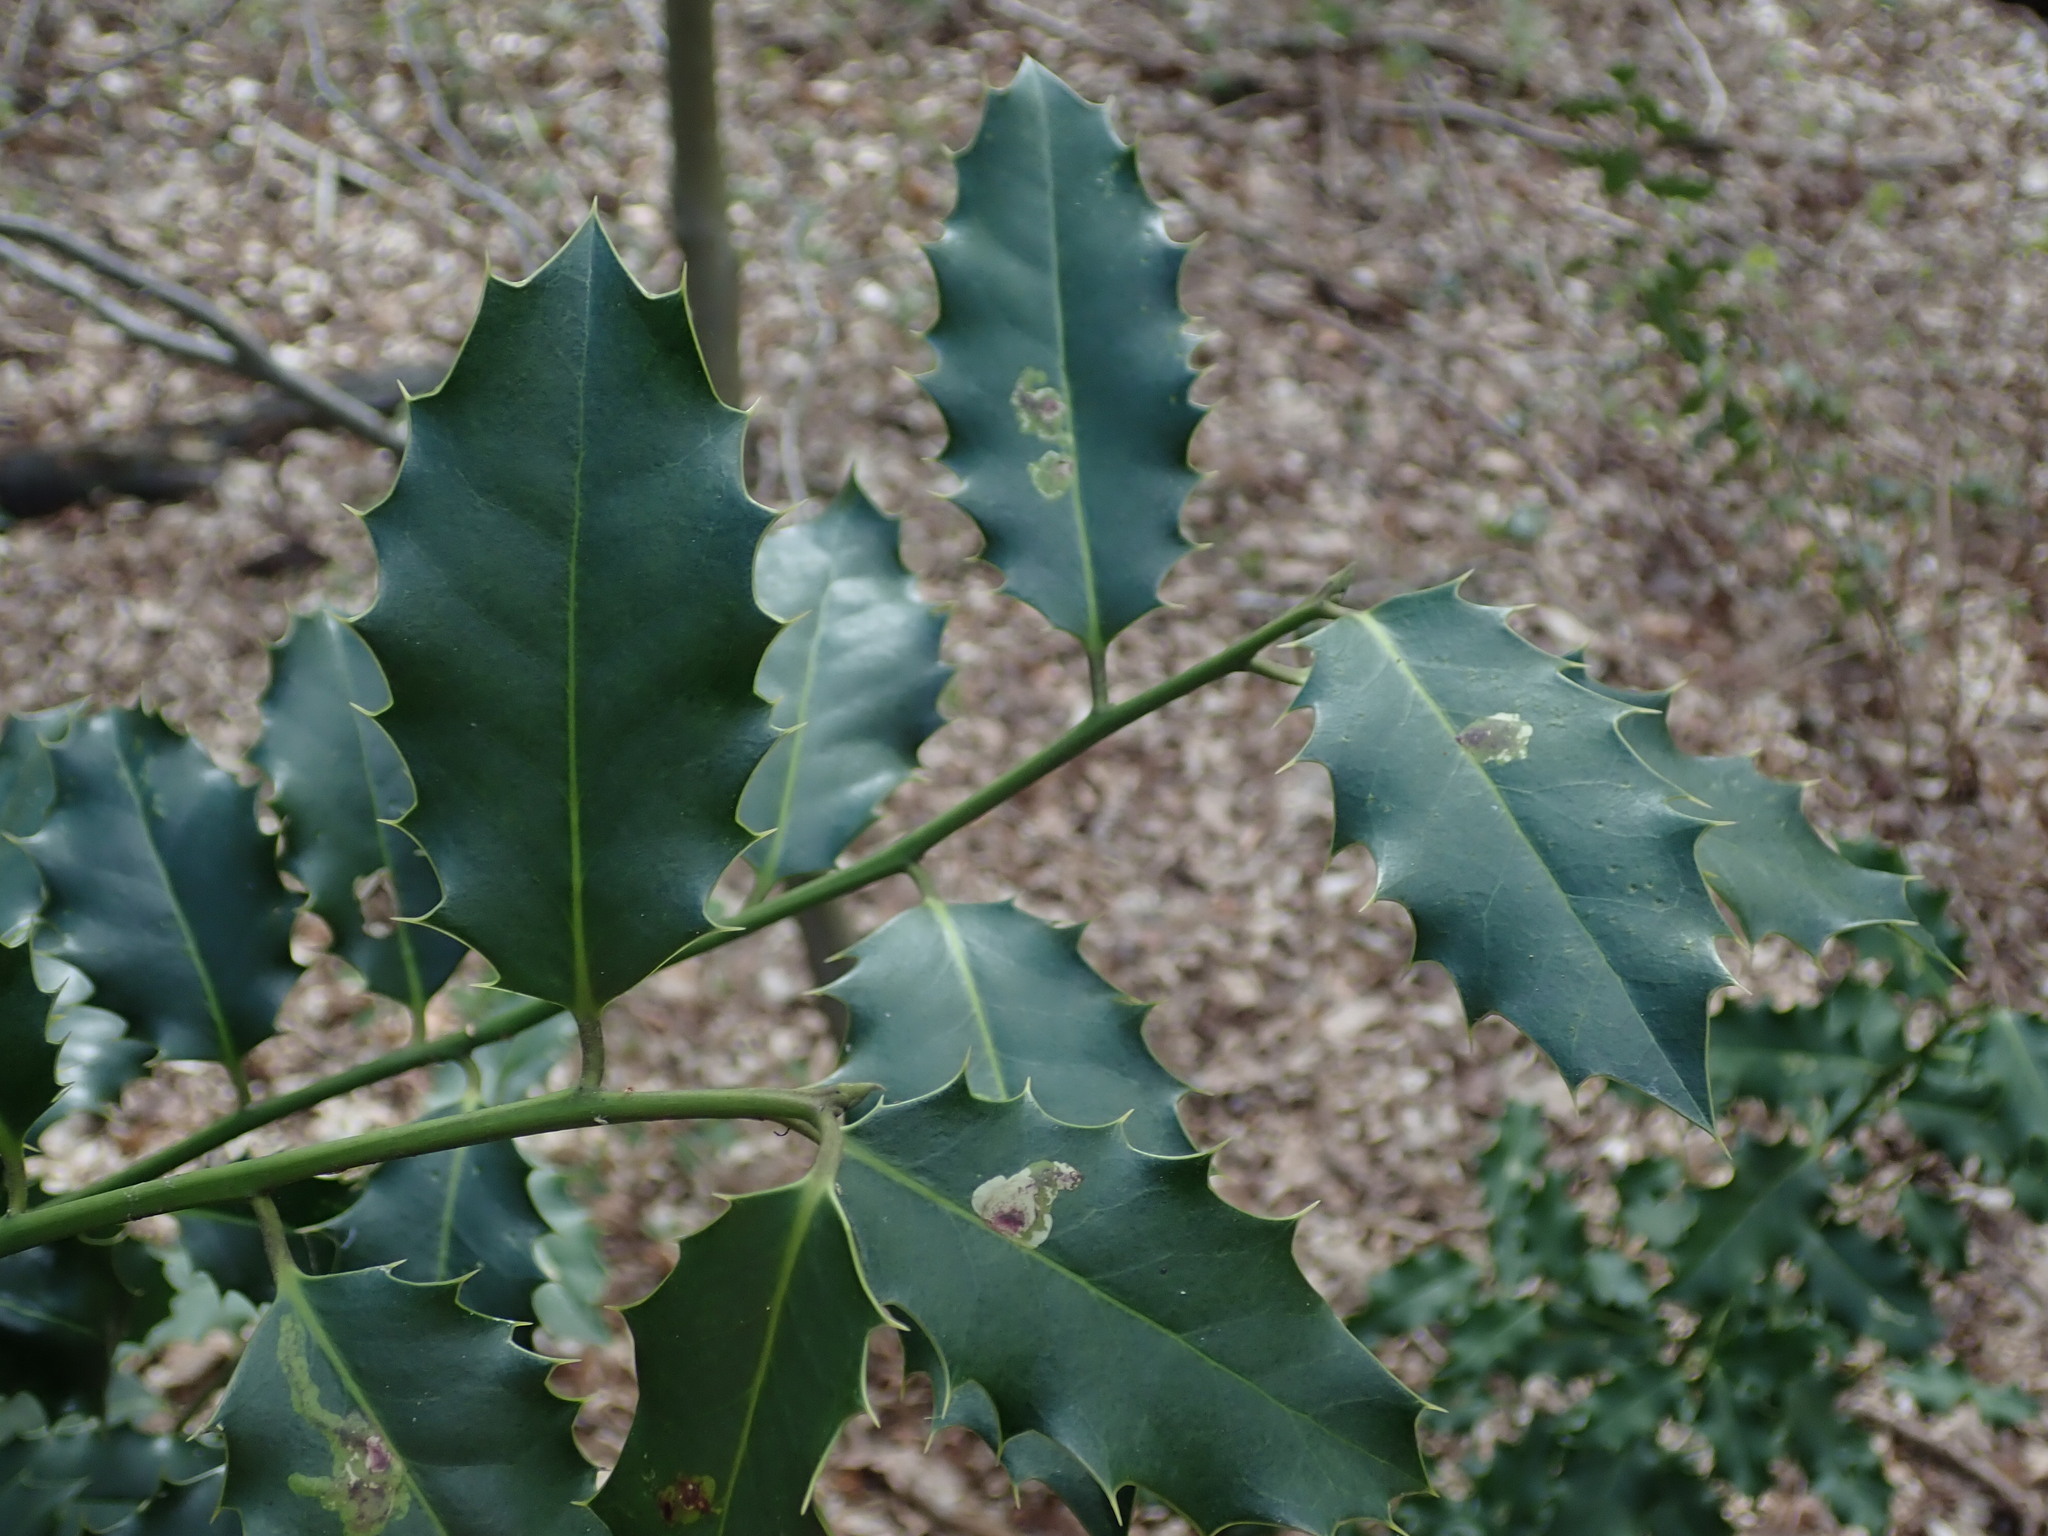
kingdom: Plantae
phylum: Tracheophyta
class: Magnoliopsida
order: Aquifoliales
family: Aquifoliaceae
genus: Ilex
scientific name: Ilex aquifolium
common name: English holly
